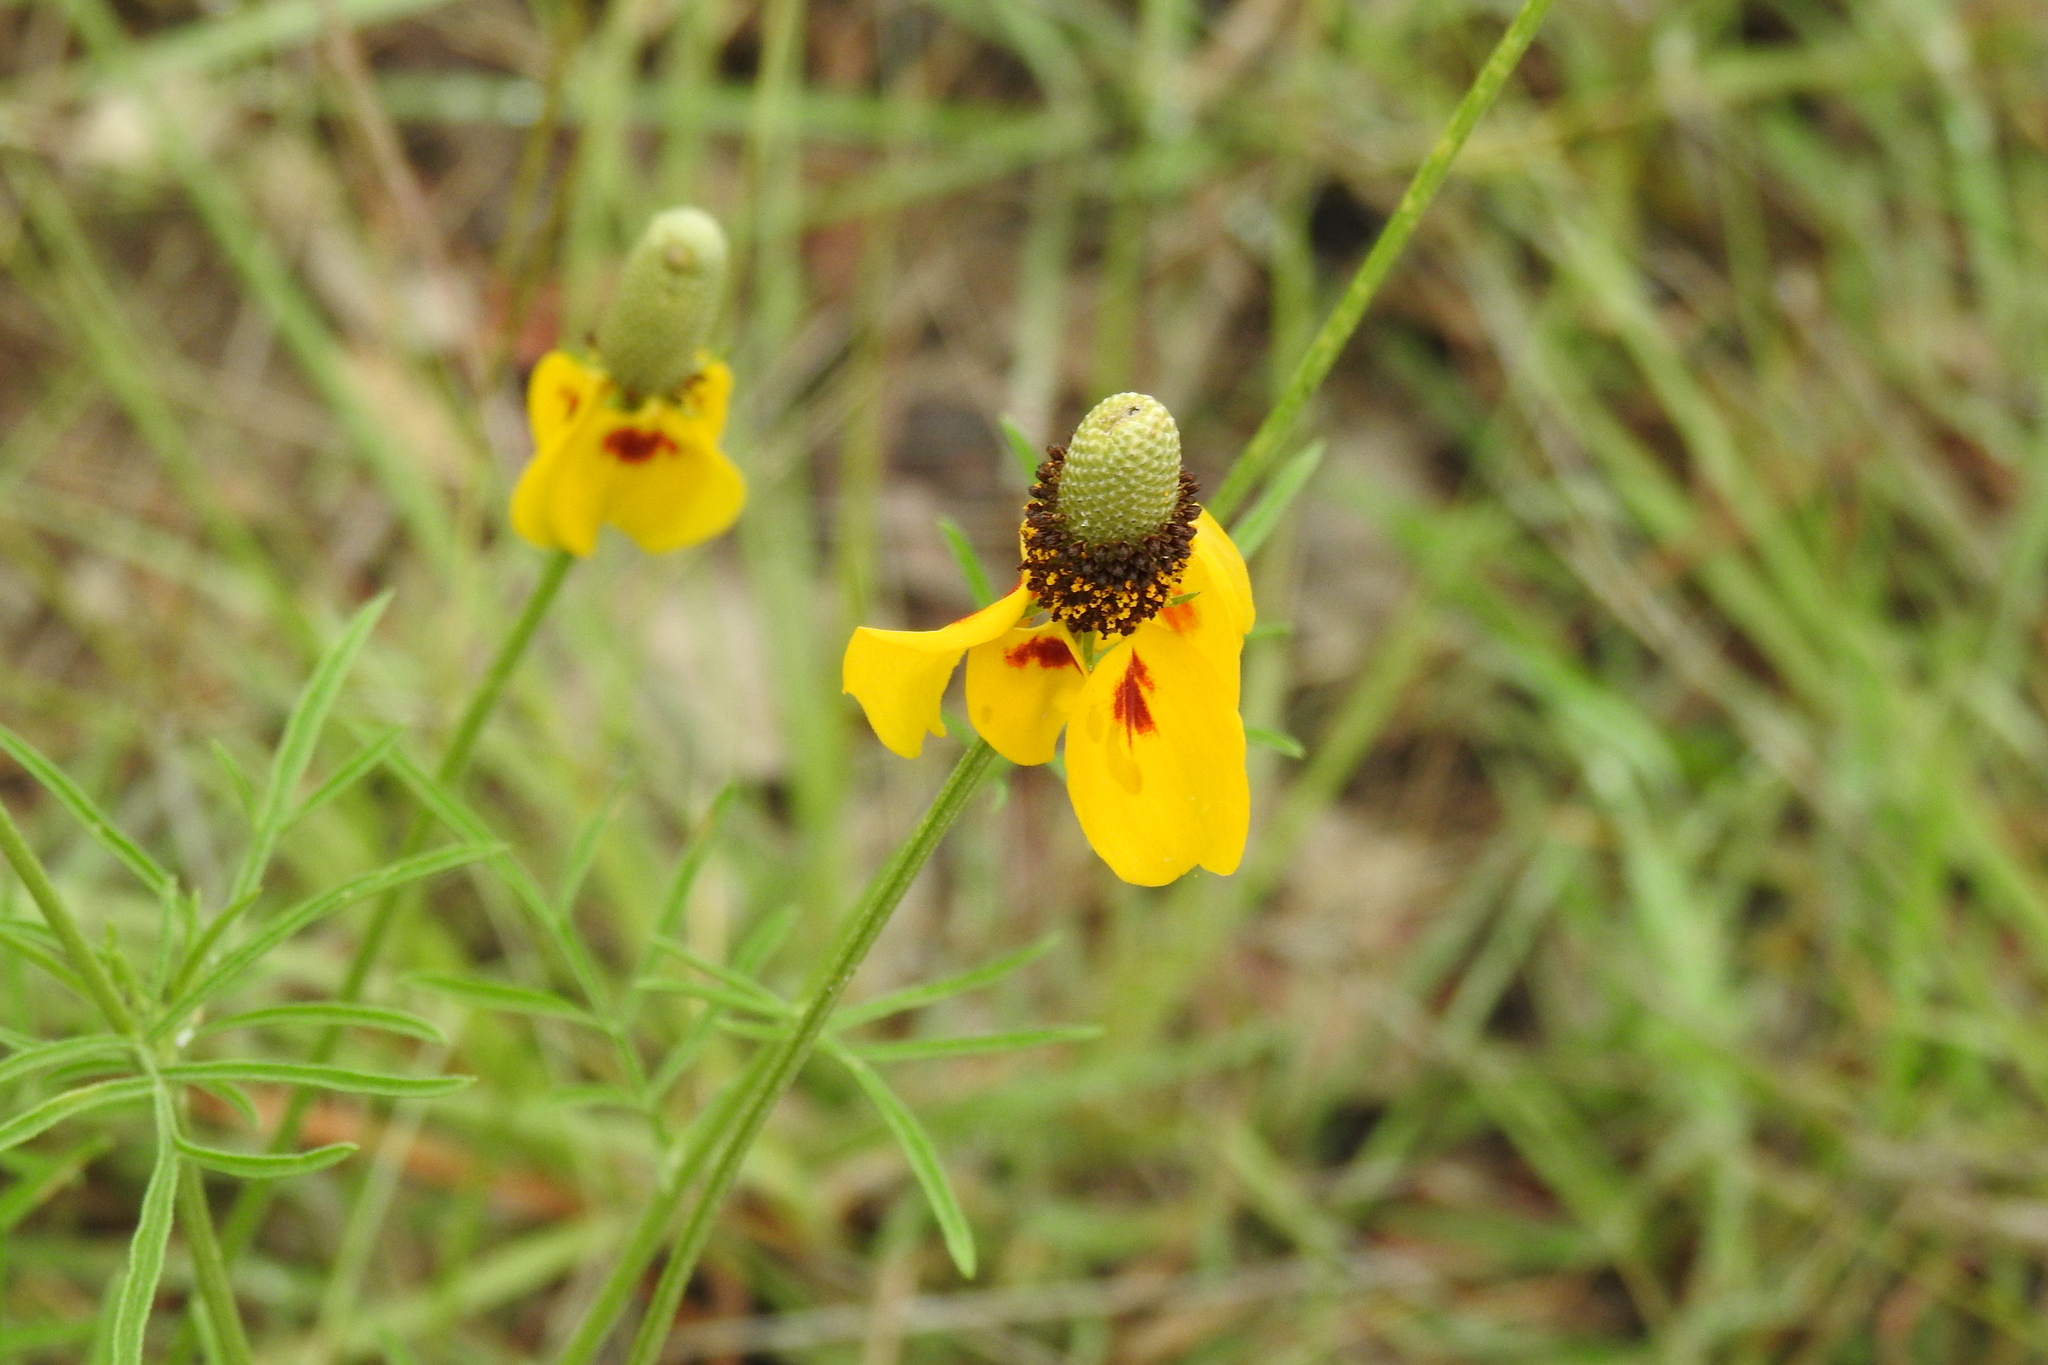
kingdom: Plantae
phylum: Tracheophyta
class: Magnoliopsida
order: Asterales
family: Asteraceae
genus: Ratibida
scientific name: Ratibida columnifera
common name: Prairie coneflower
